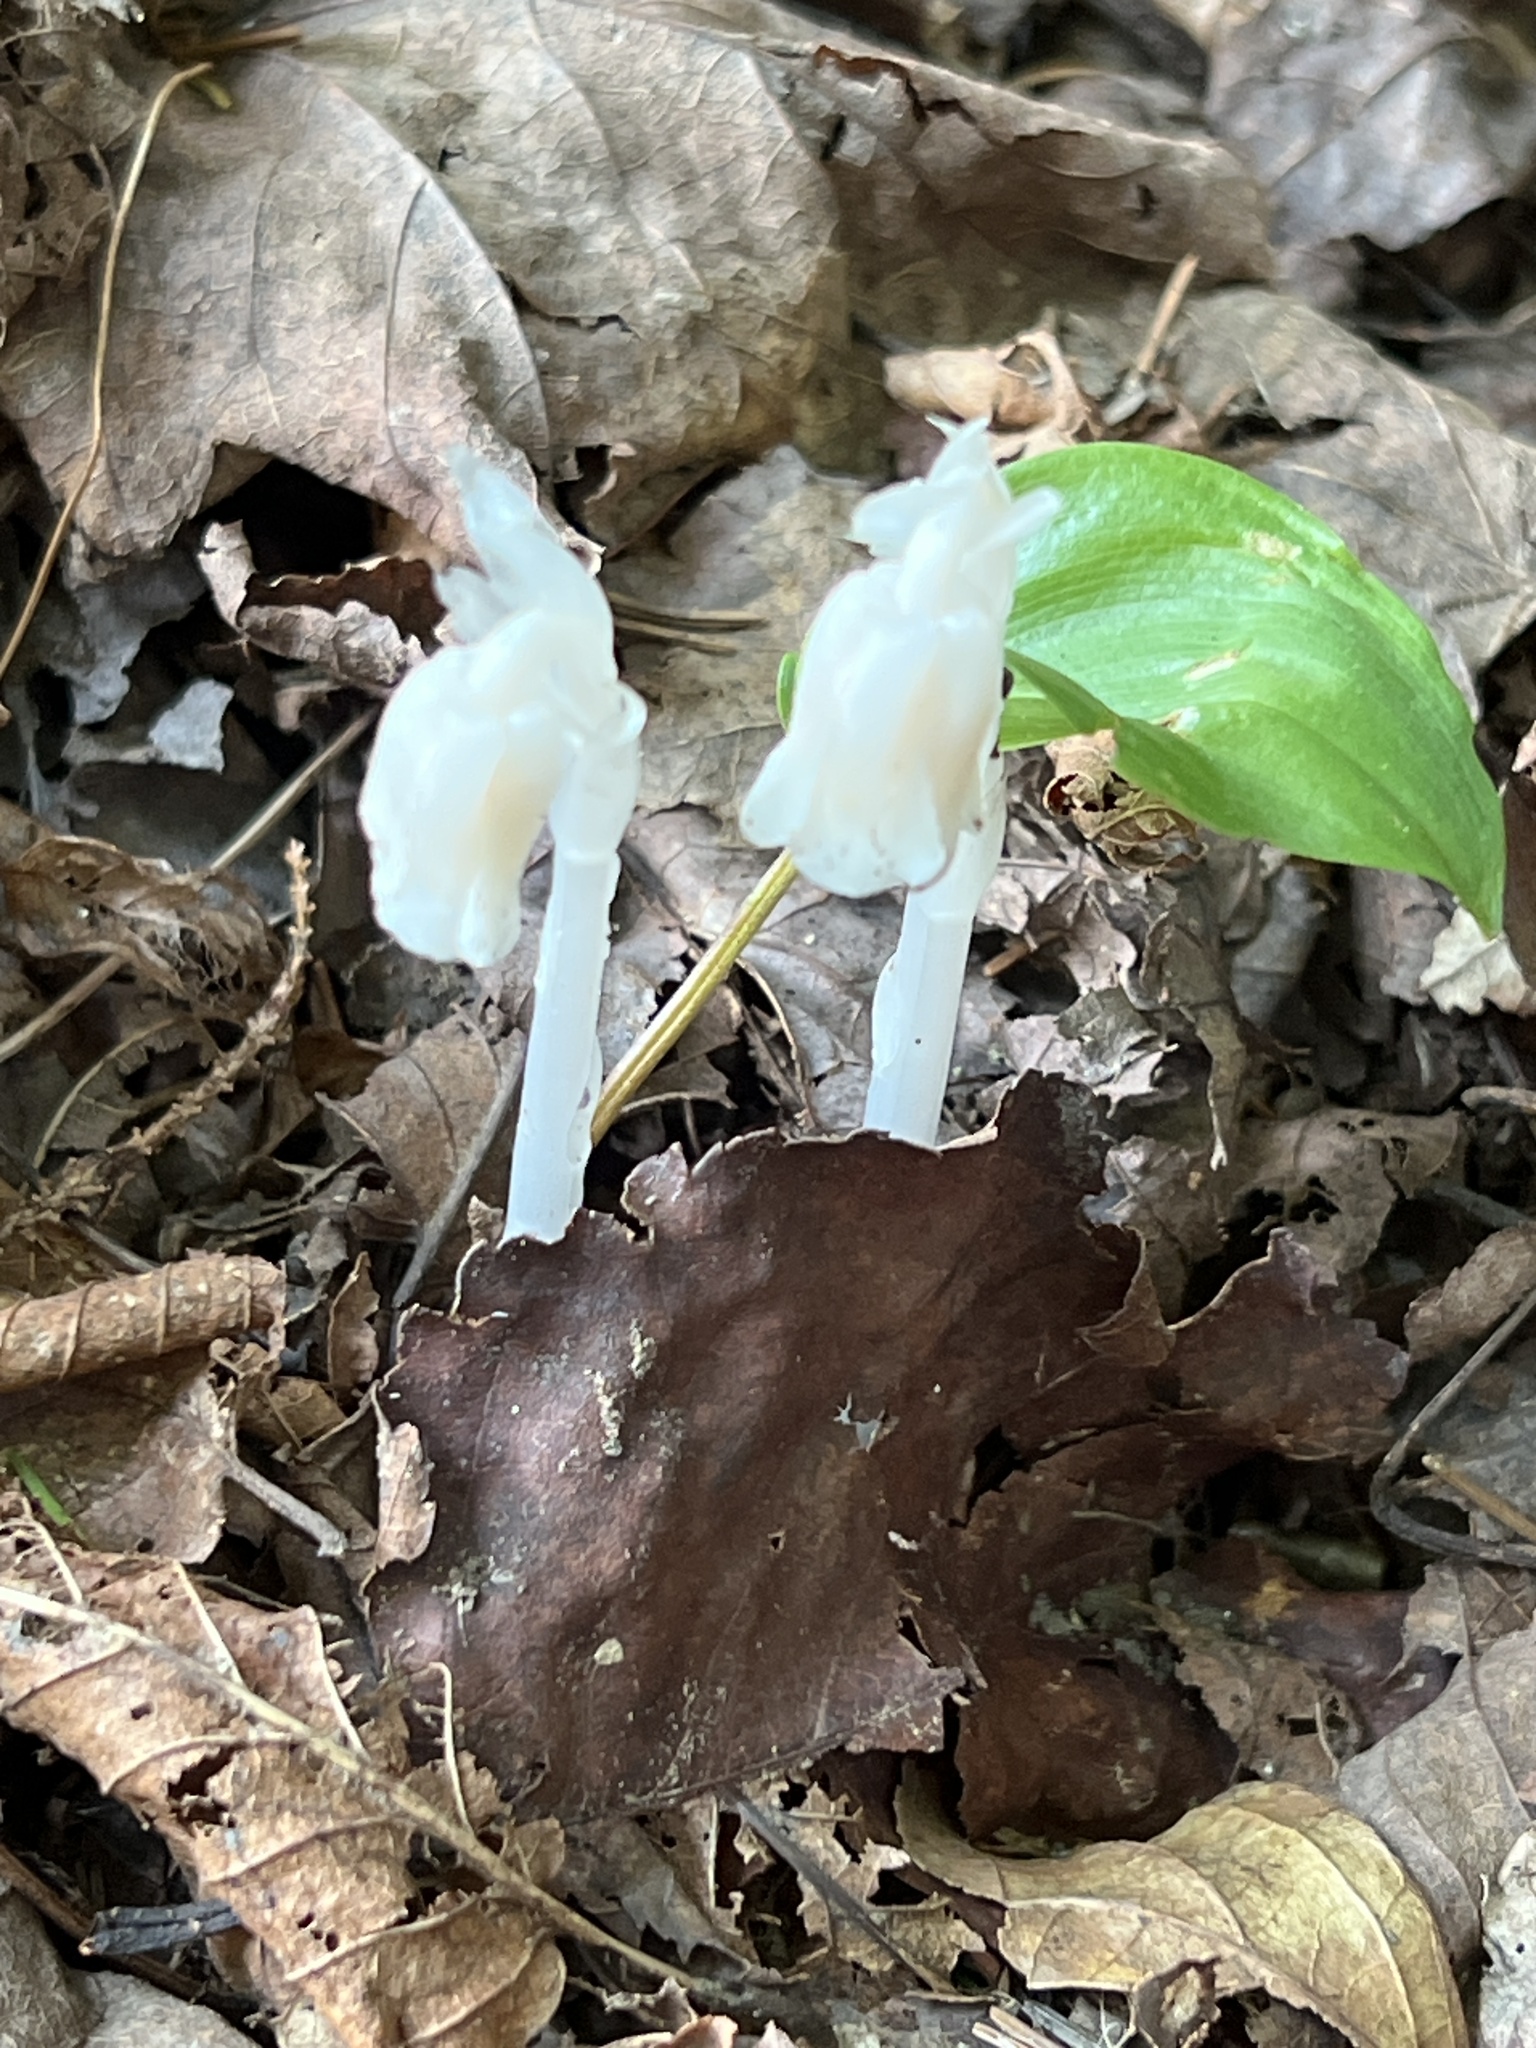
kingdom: Plantae
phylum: Tracheophyta
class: Magnoliopsida
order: Ericales
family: Ericaceae
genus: Monotropa
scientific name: Monotropa uniflora
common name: Convulsion root
